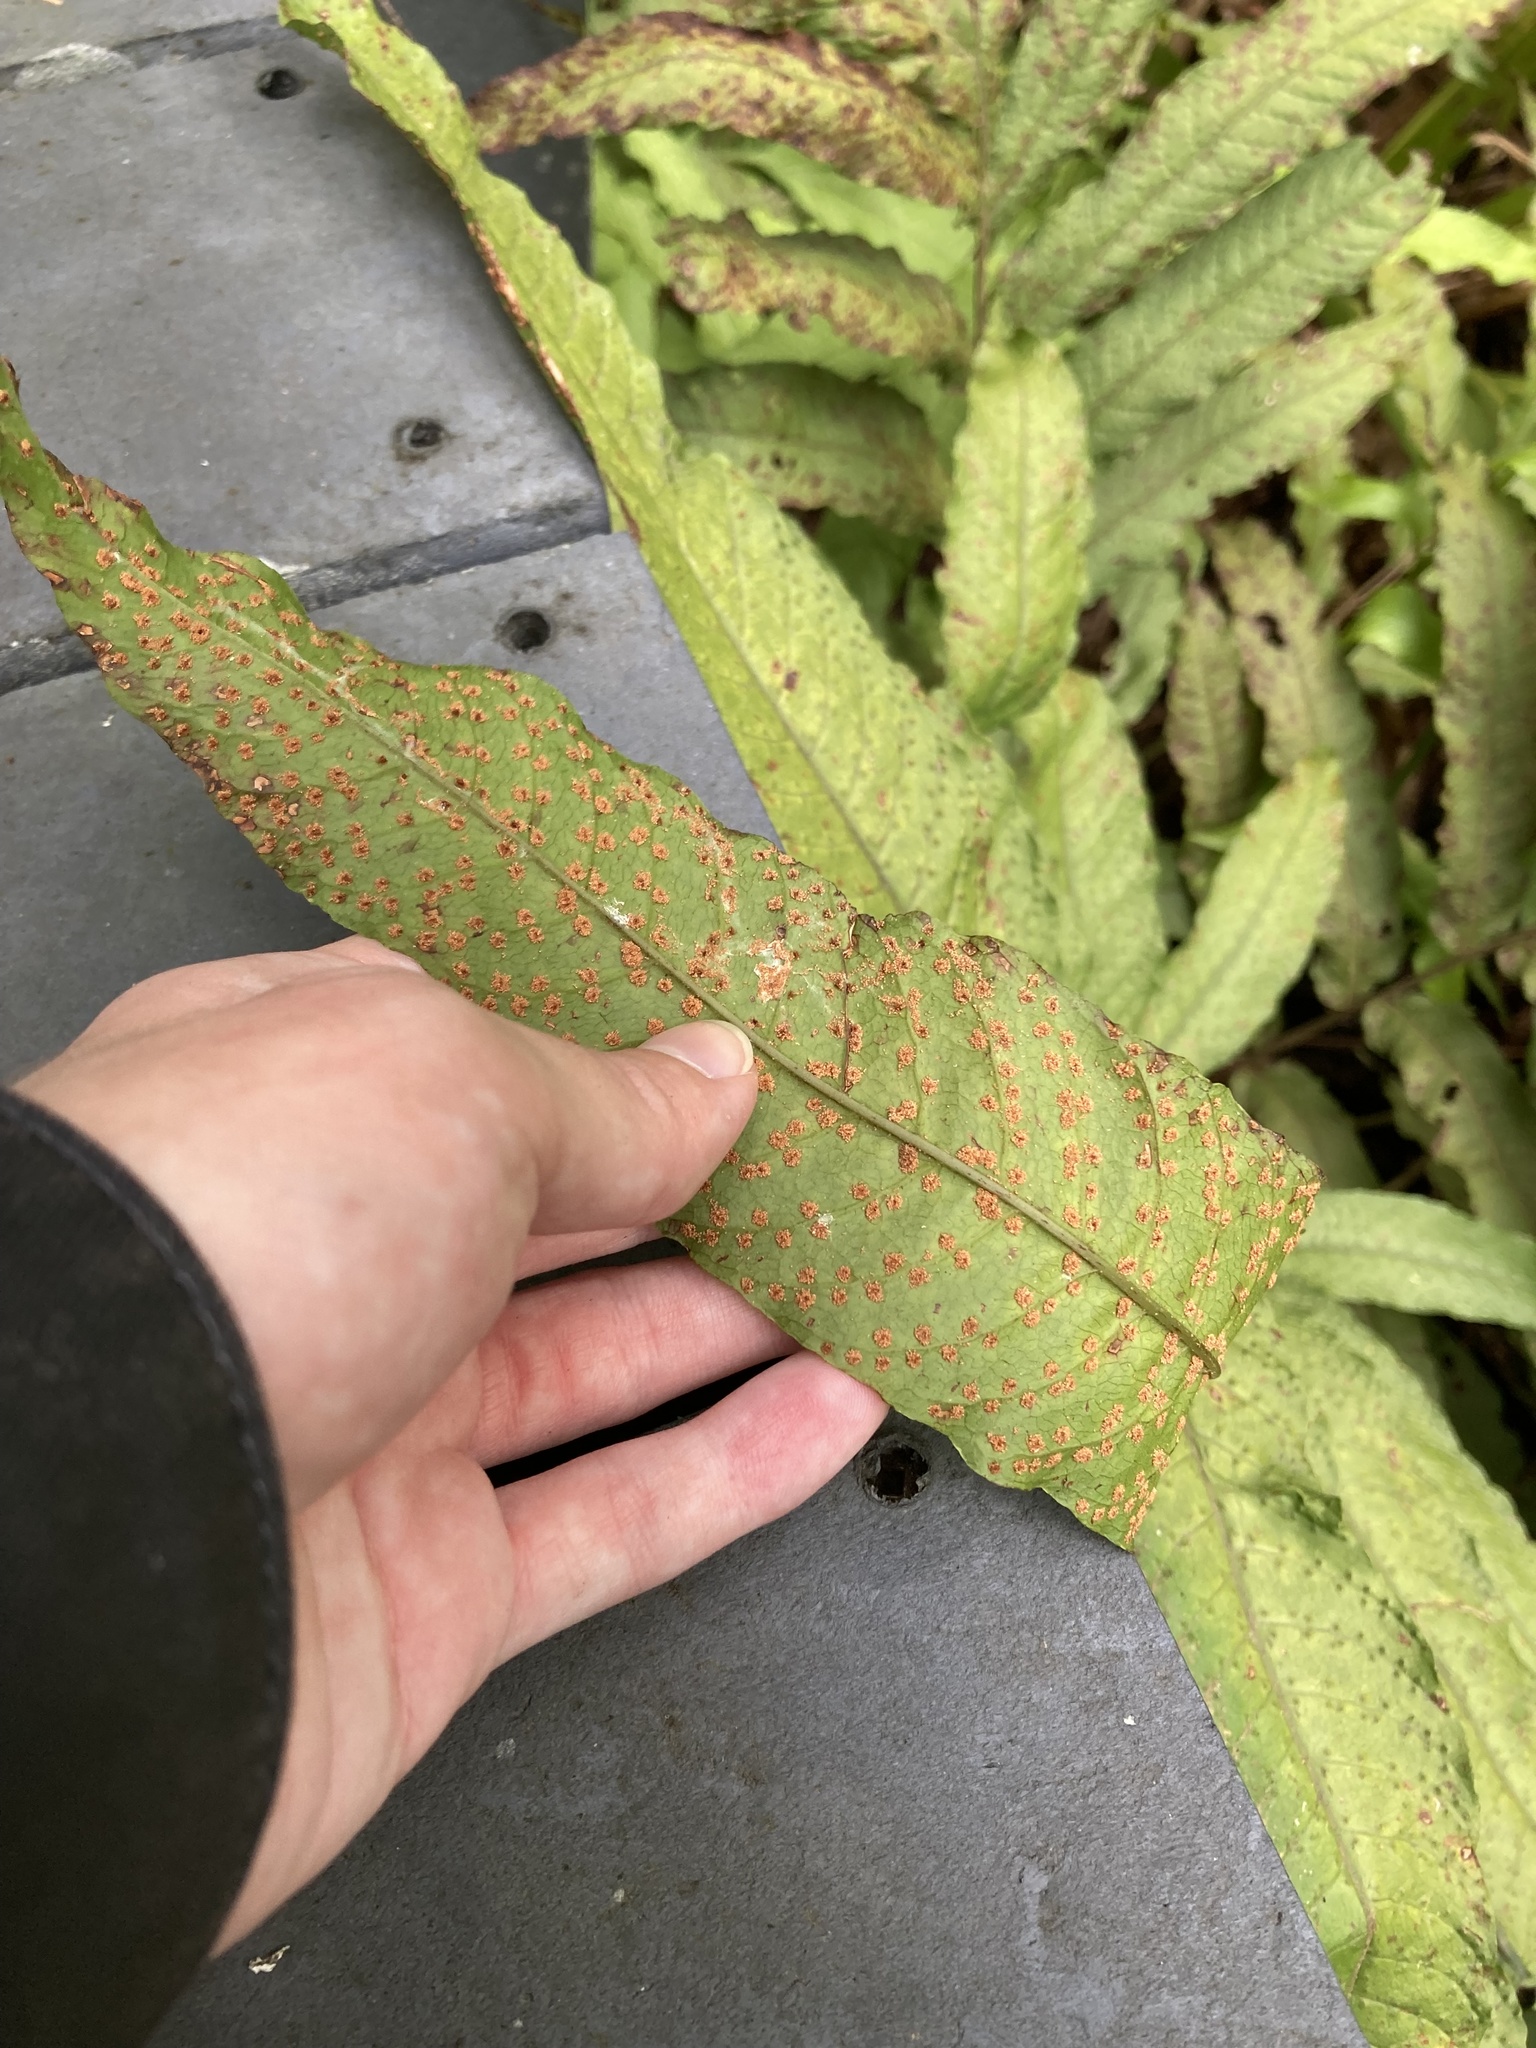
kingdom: Plantae
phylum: Tracheophyta
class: Polypodiopsida
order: Polypodiales
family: Tectariaceae
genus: Tectaria
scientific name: Tectaria incisa
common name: Incised halberd fern
